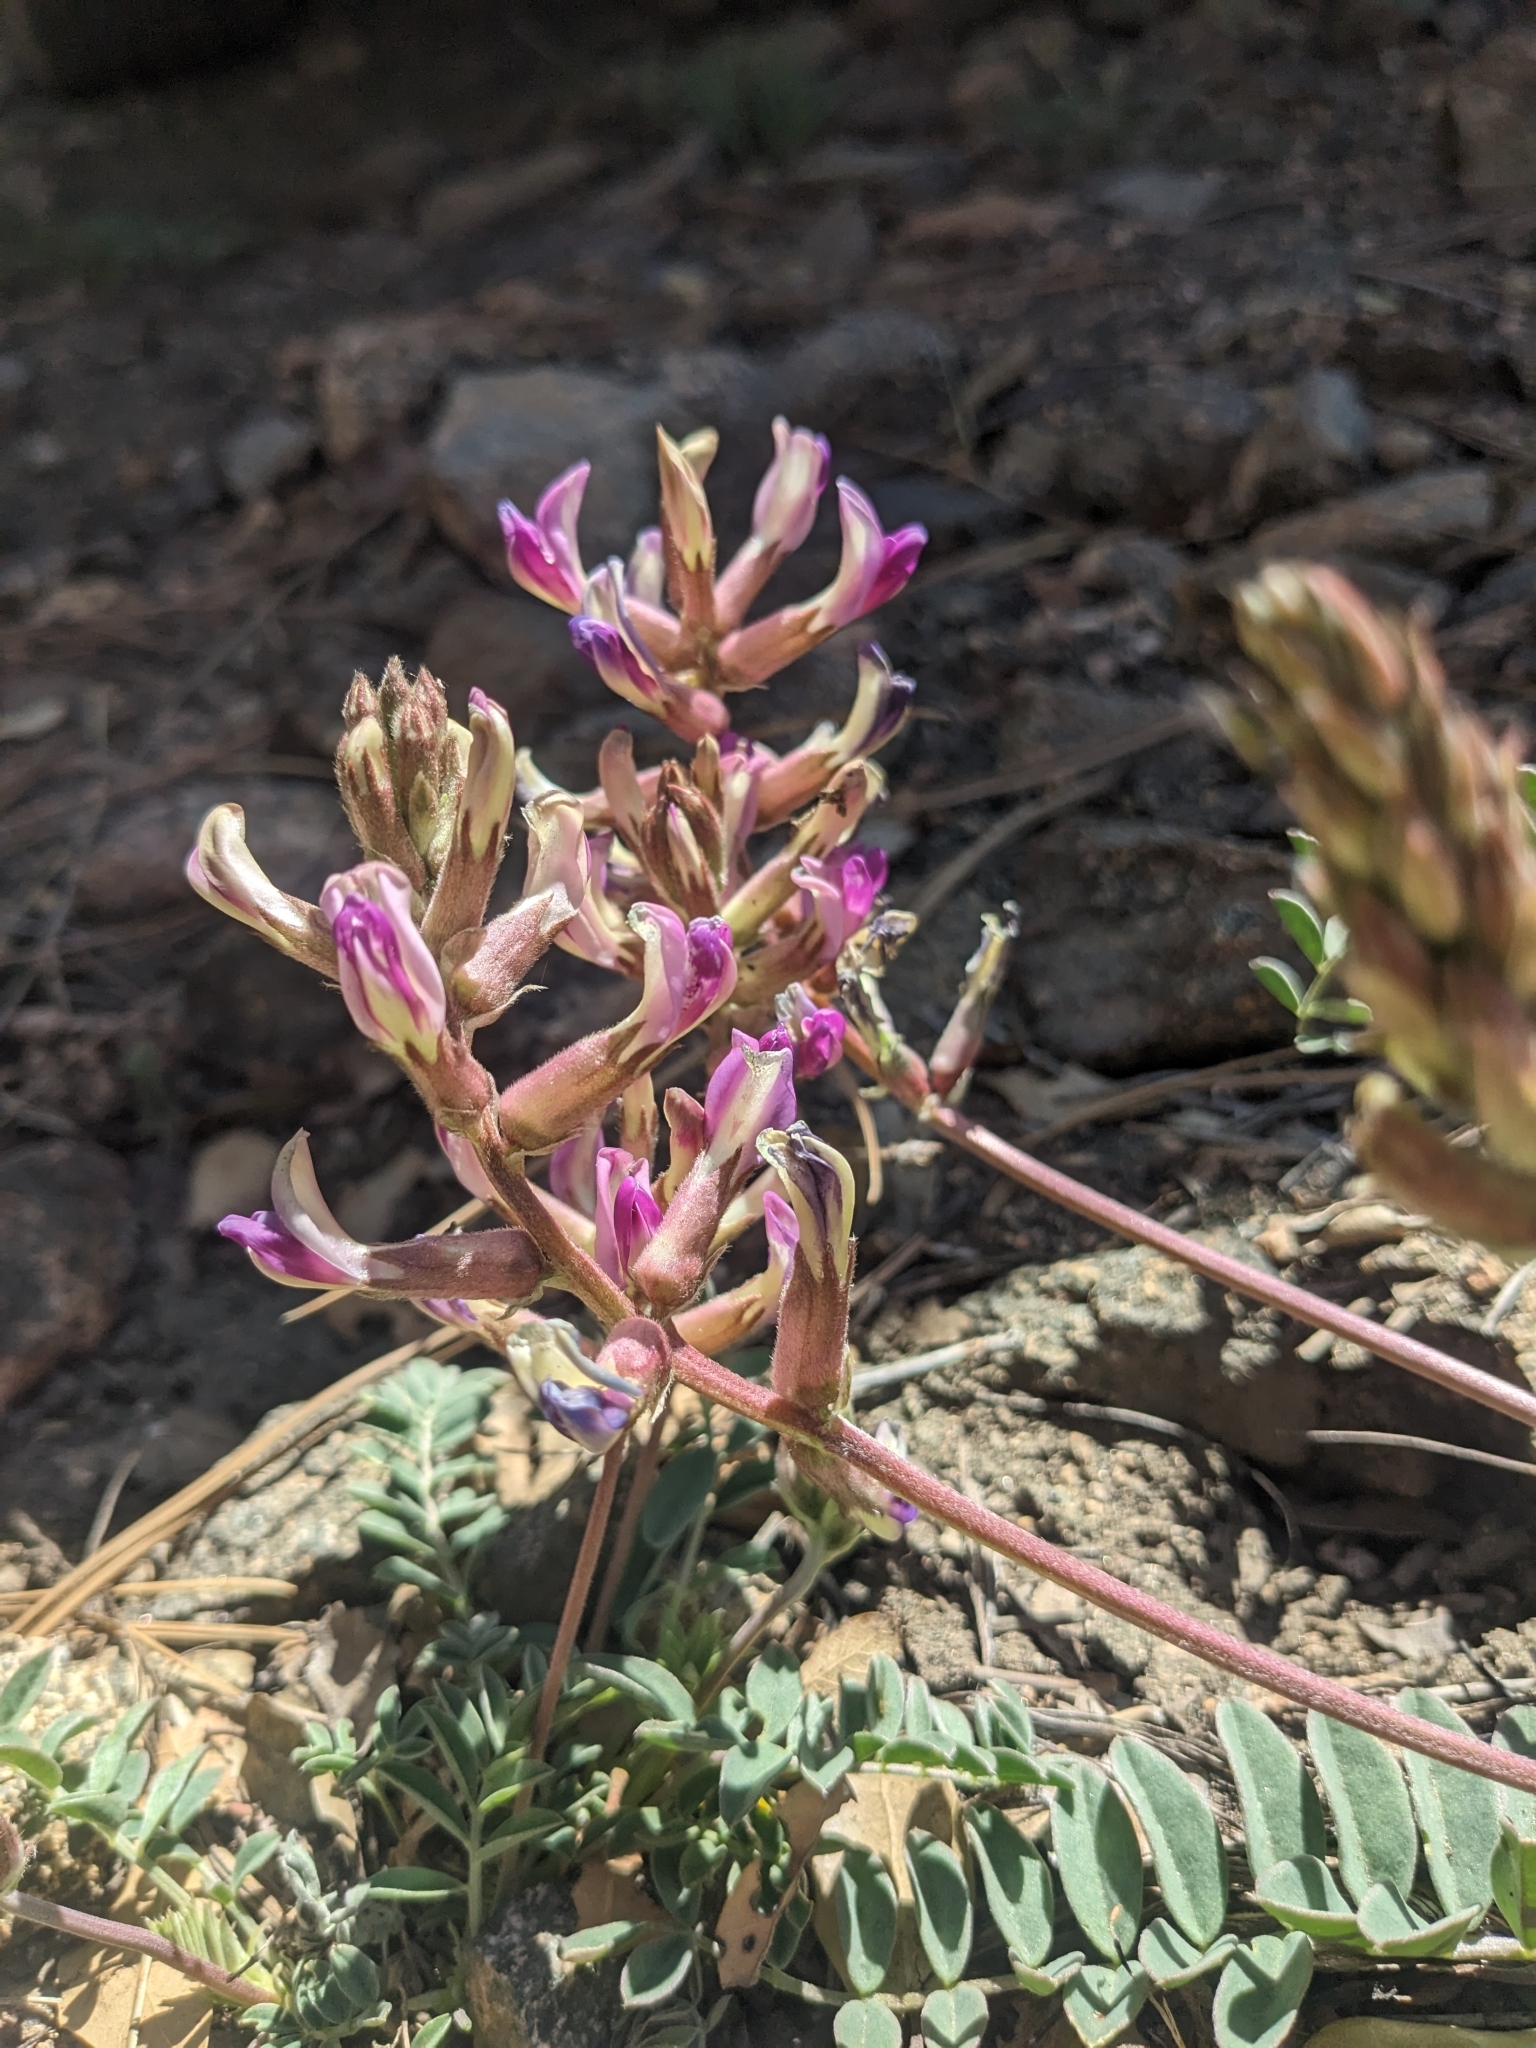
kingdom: Plantae
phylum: Tracheophyta
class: Magnoliopsida
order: Fabales
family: Fabaceae
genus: Astragalus
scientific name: Astragalus tephrodes
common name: Ashen milk-vetch
